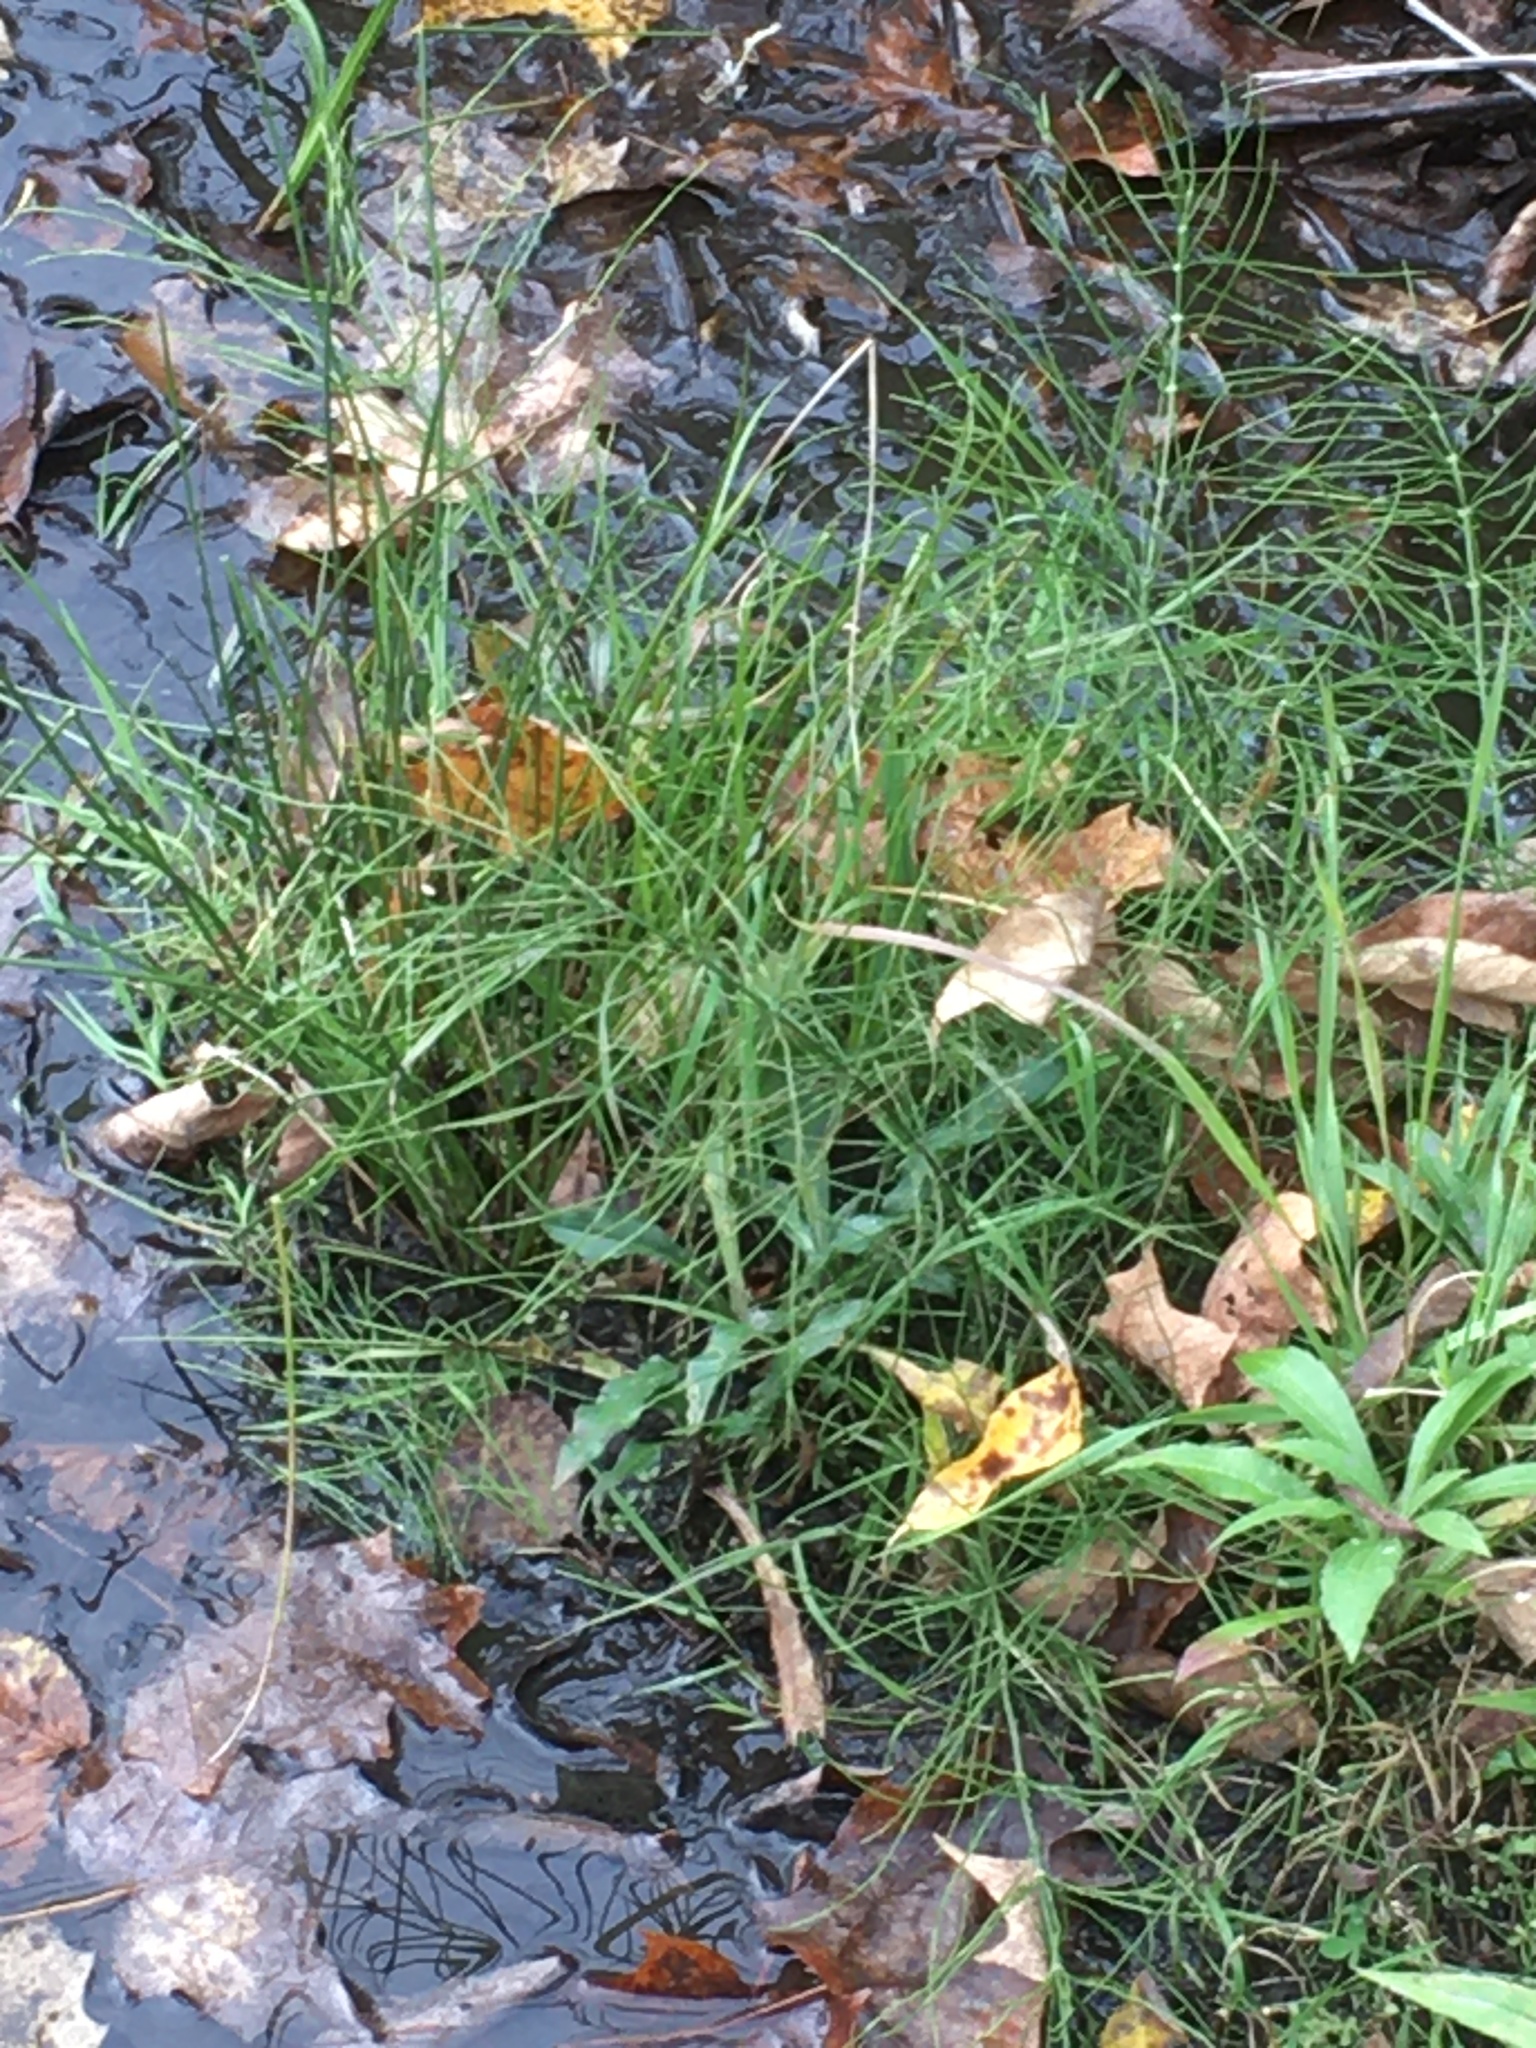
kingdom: Plantae
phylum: Tracheophyta
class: Polypodiopsida
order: Equisetales
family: Equisetaceae
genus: Equisetum
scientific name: Equisetum arvense
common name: Field horsetail
